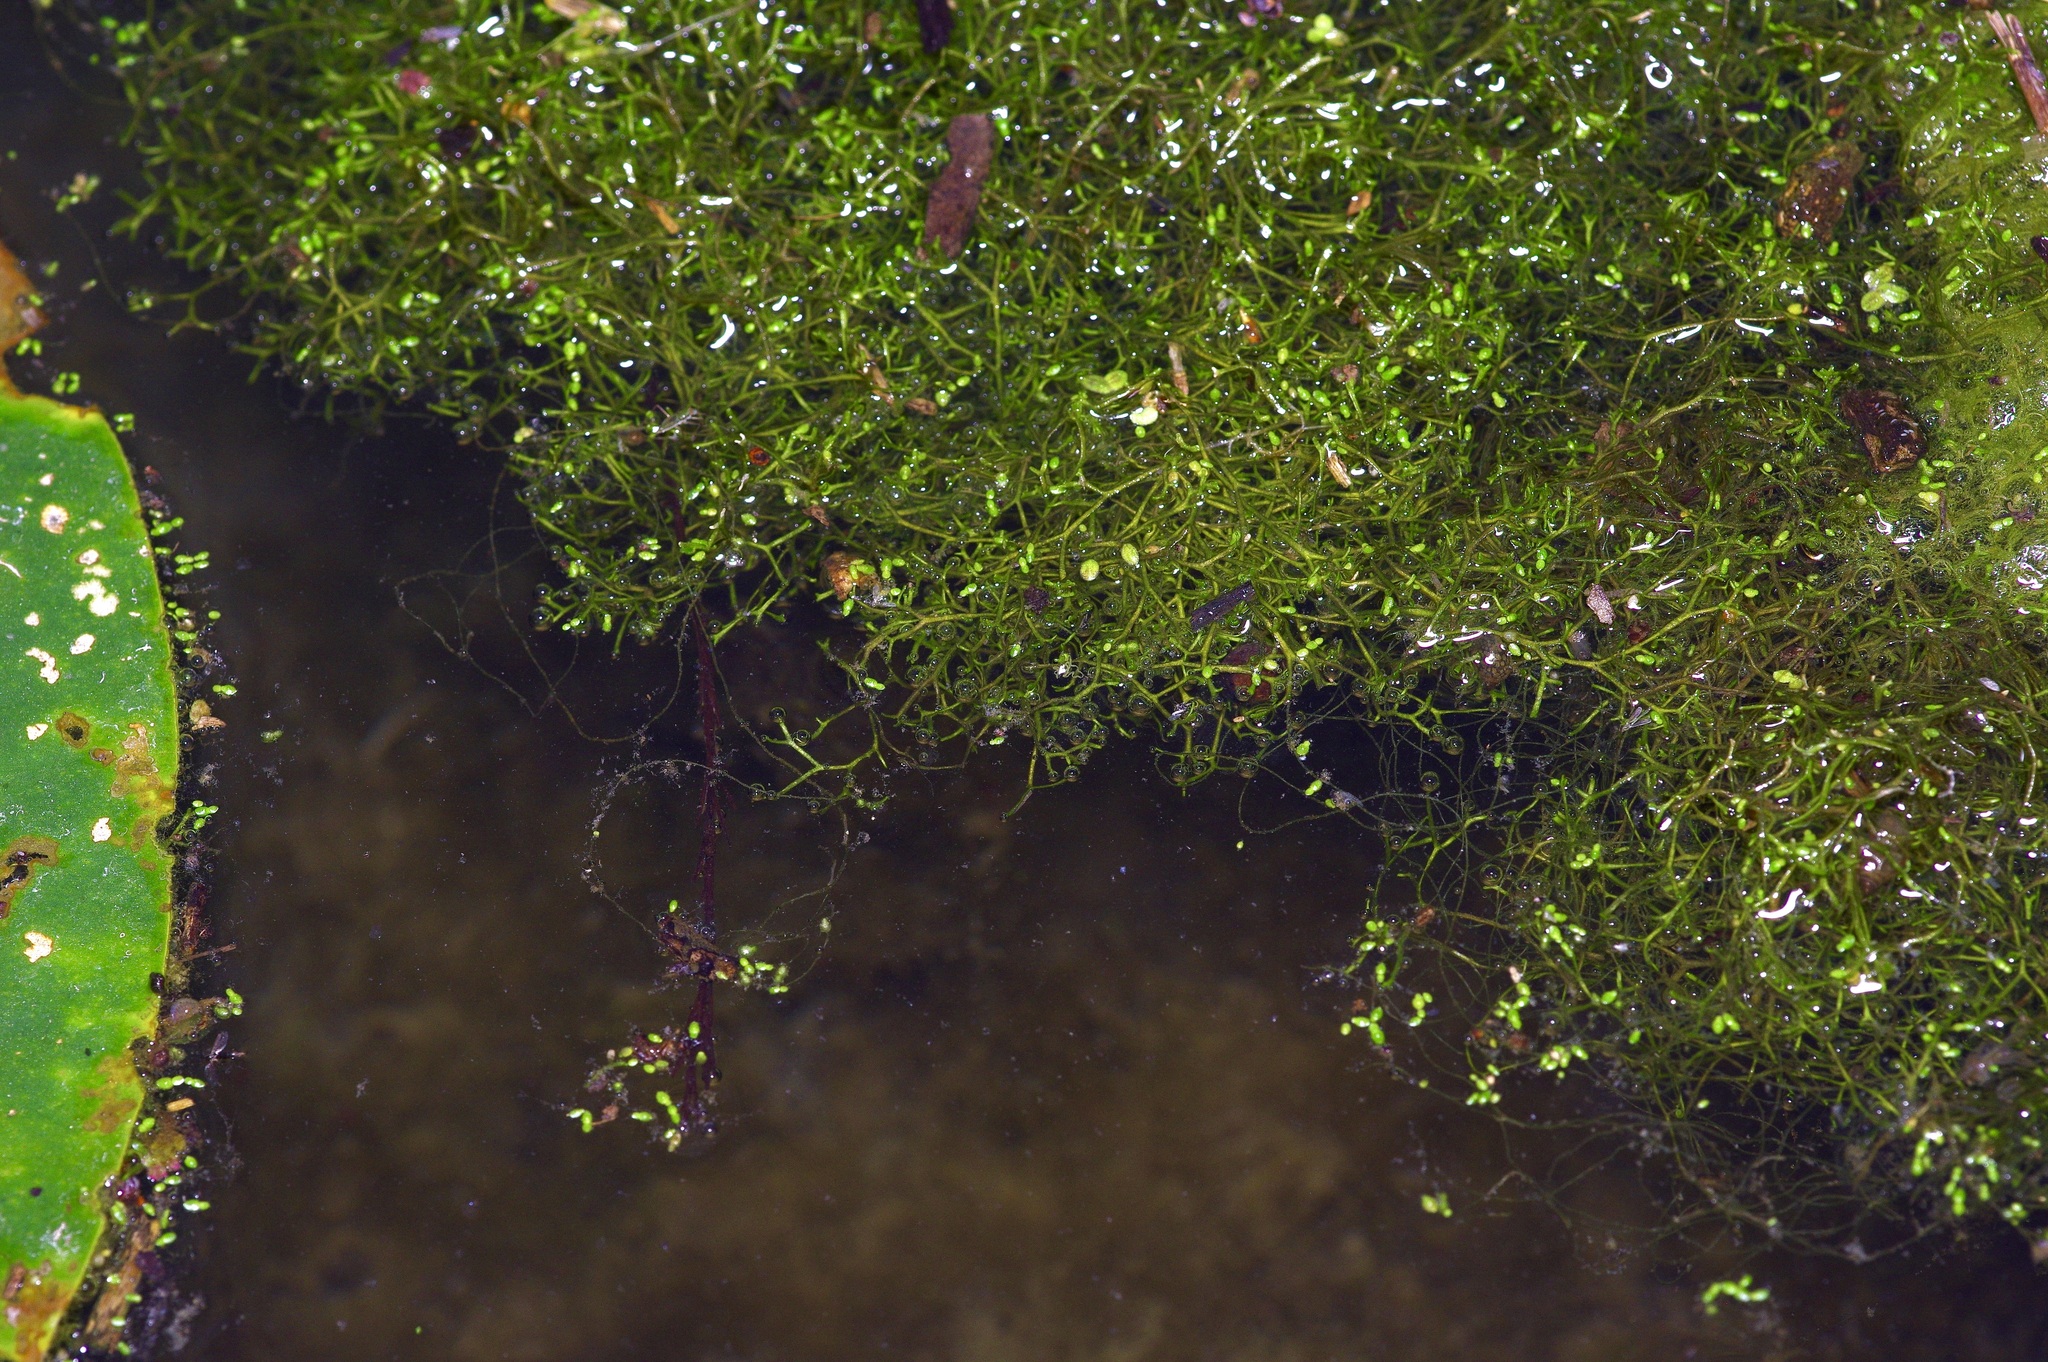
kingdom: Plantae
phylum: Marchantiophyta
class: Marchantiopsida
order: Marchantiales
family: Ricciaceae
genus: Riccia
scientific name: Riccia fluitans
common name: Floating crystalwort
